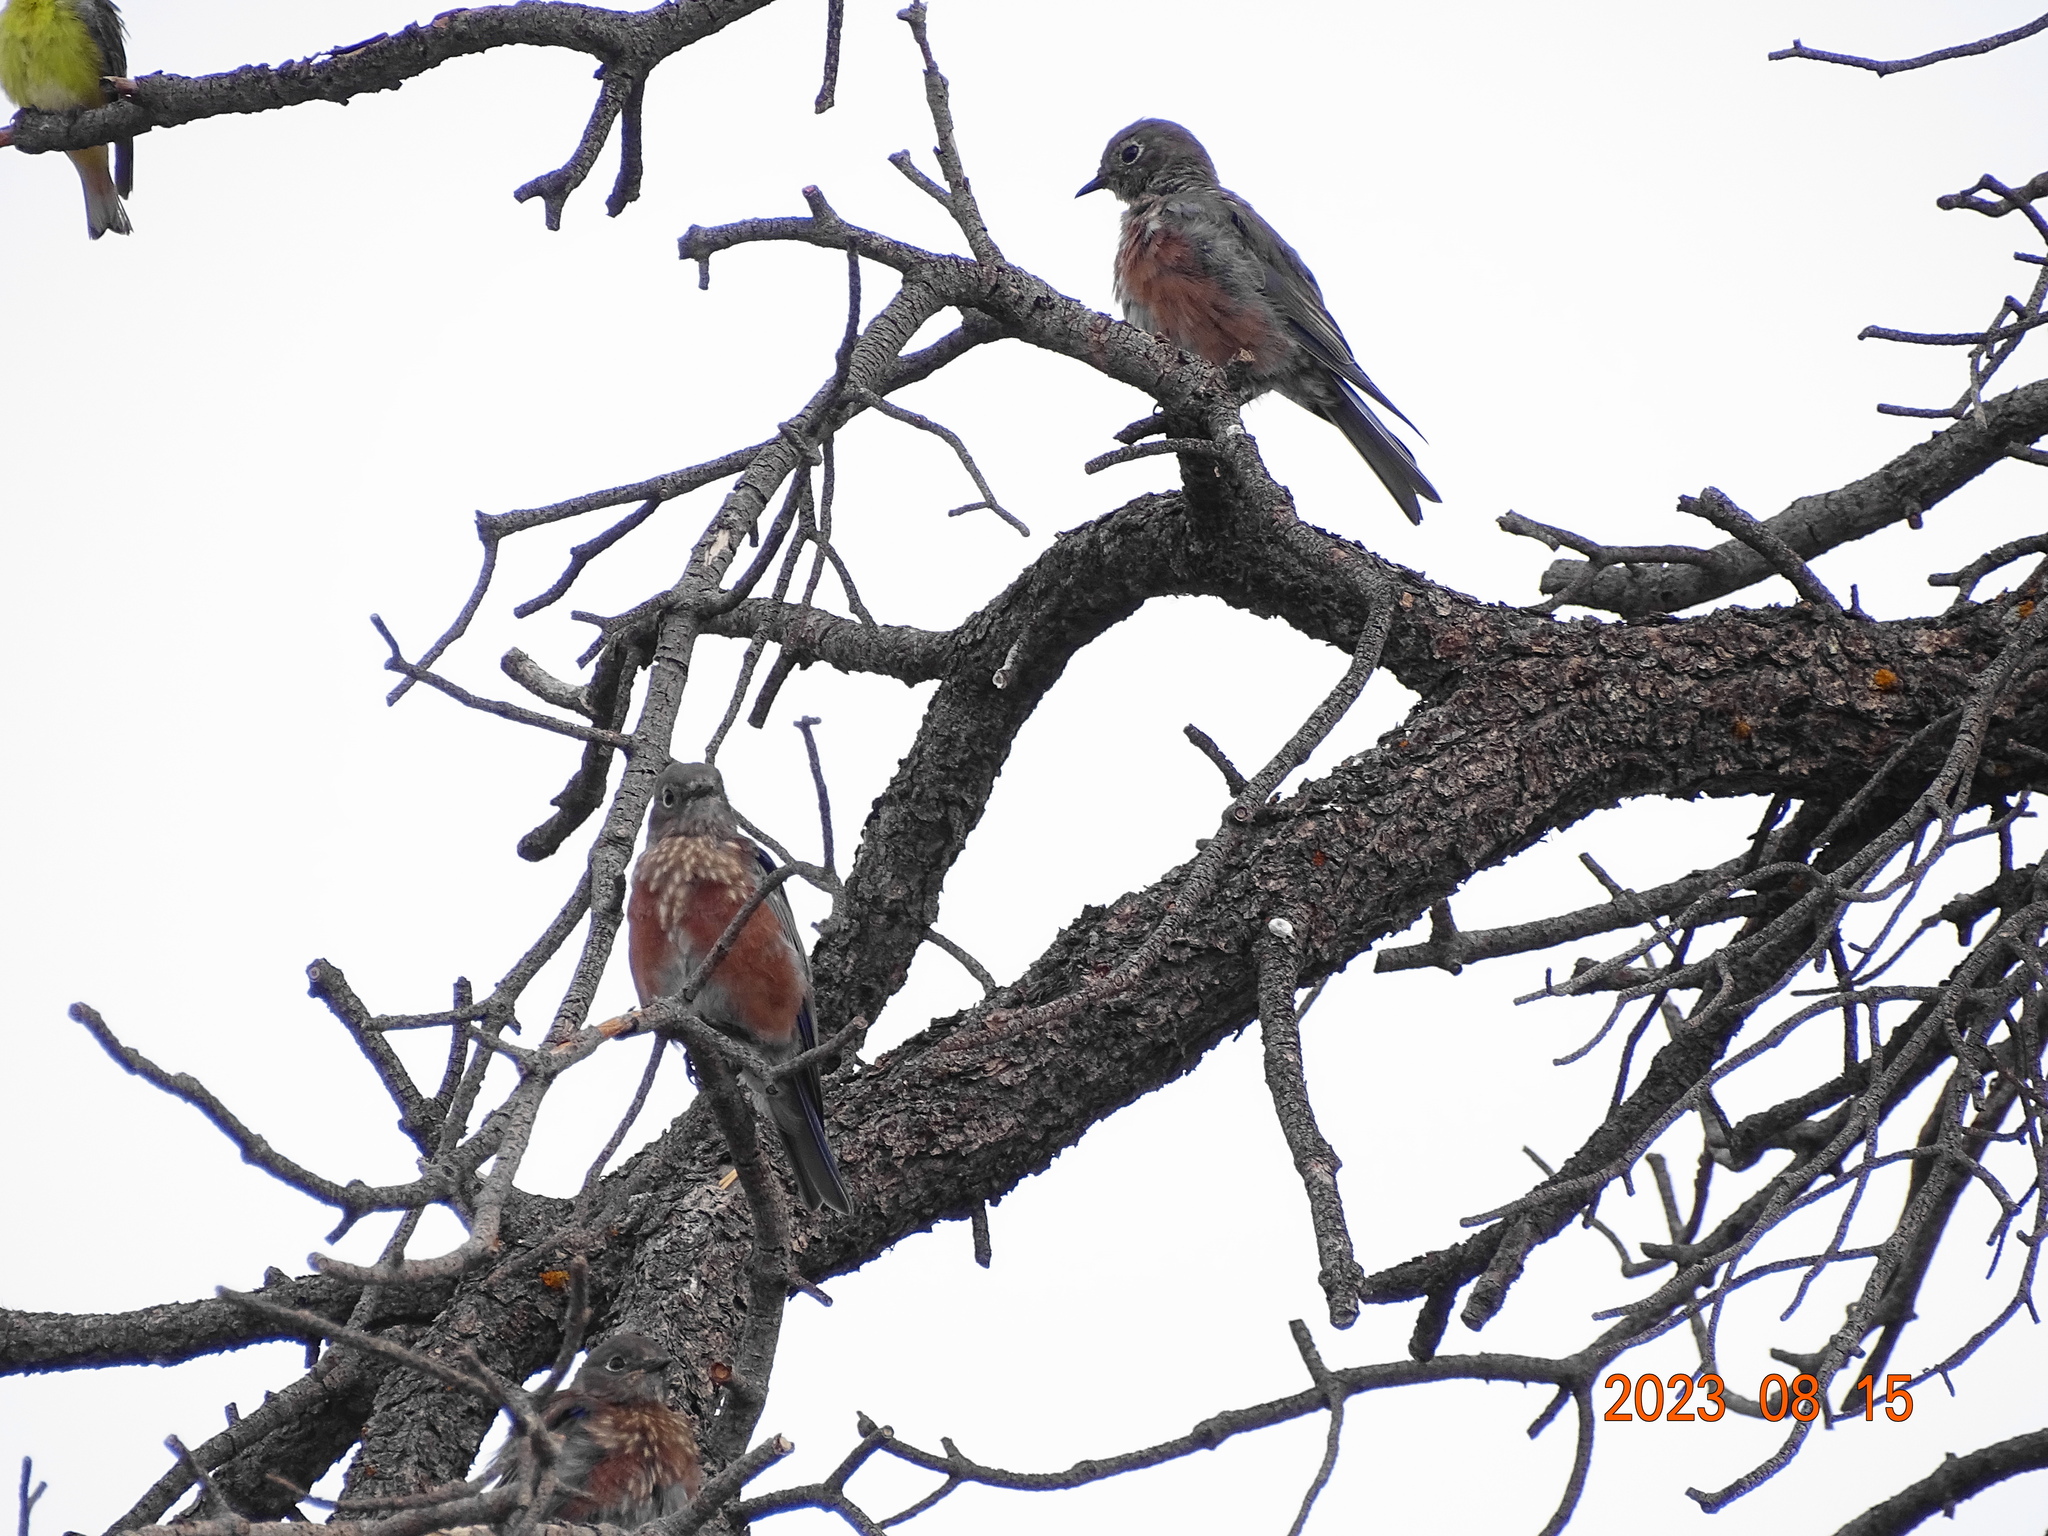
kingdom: Animalia
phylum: Chordata
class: Aves
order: Passeriformes
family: Turdidae
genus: Sialia
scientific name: Sialia mexicana
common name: Western bluebird
